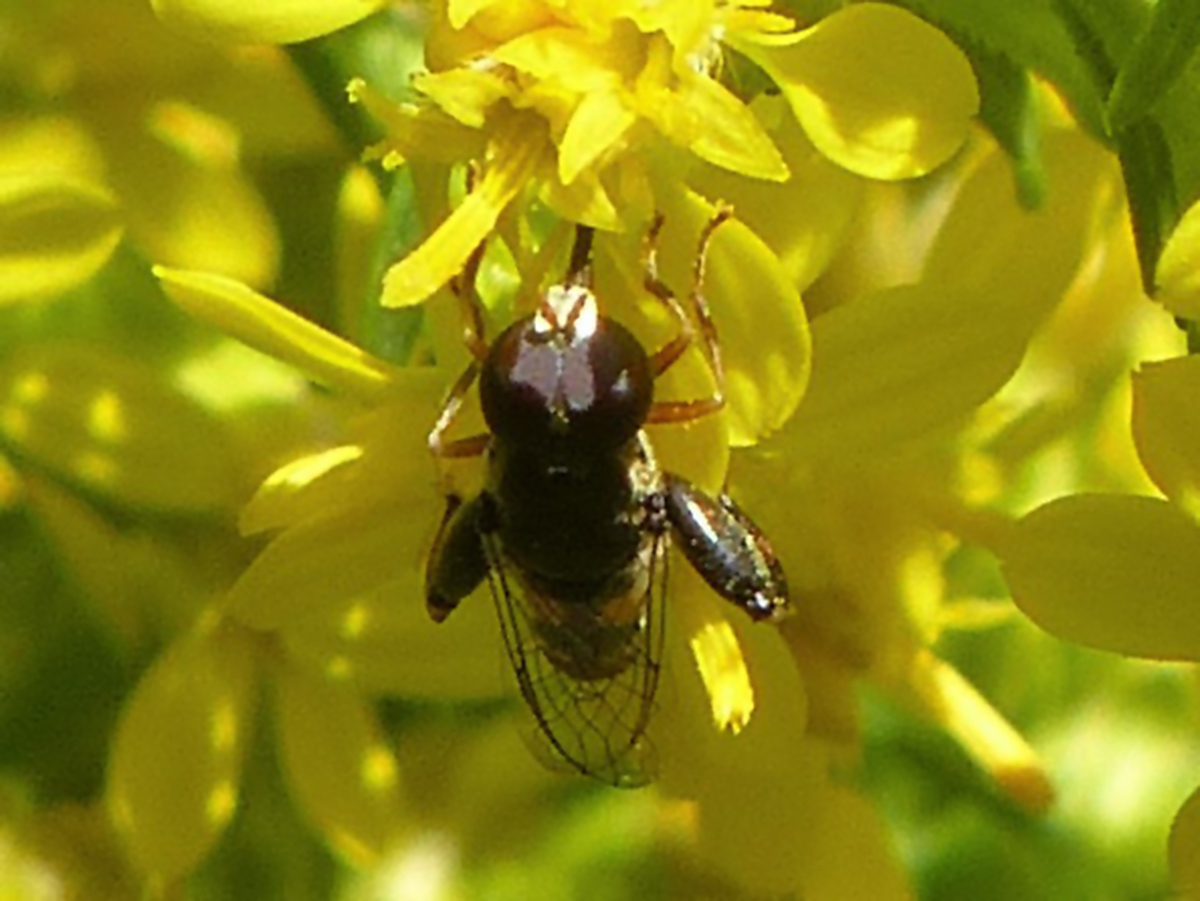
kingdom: Animalia
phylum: Arthropoda
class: Insecta
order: Diptera
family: Syrphidae
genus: Syritta
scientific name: Syritta pipiens
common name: Hover fly
